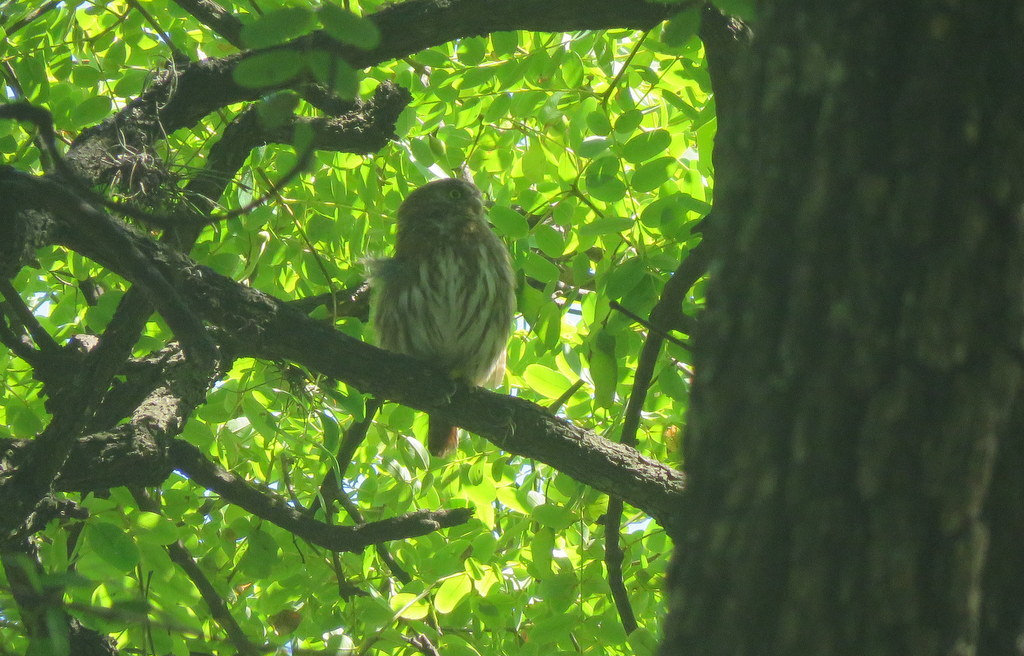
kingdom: Animalia
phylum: Chordata
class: Aves
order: Strigiformes
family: Strigidae
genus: Glaucidium
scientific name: Glaucidium brasilianum
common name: Ferruginous pygmy-owl
